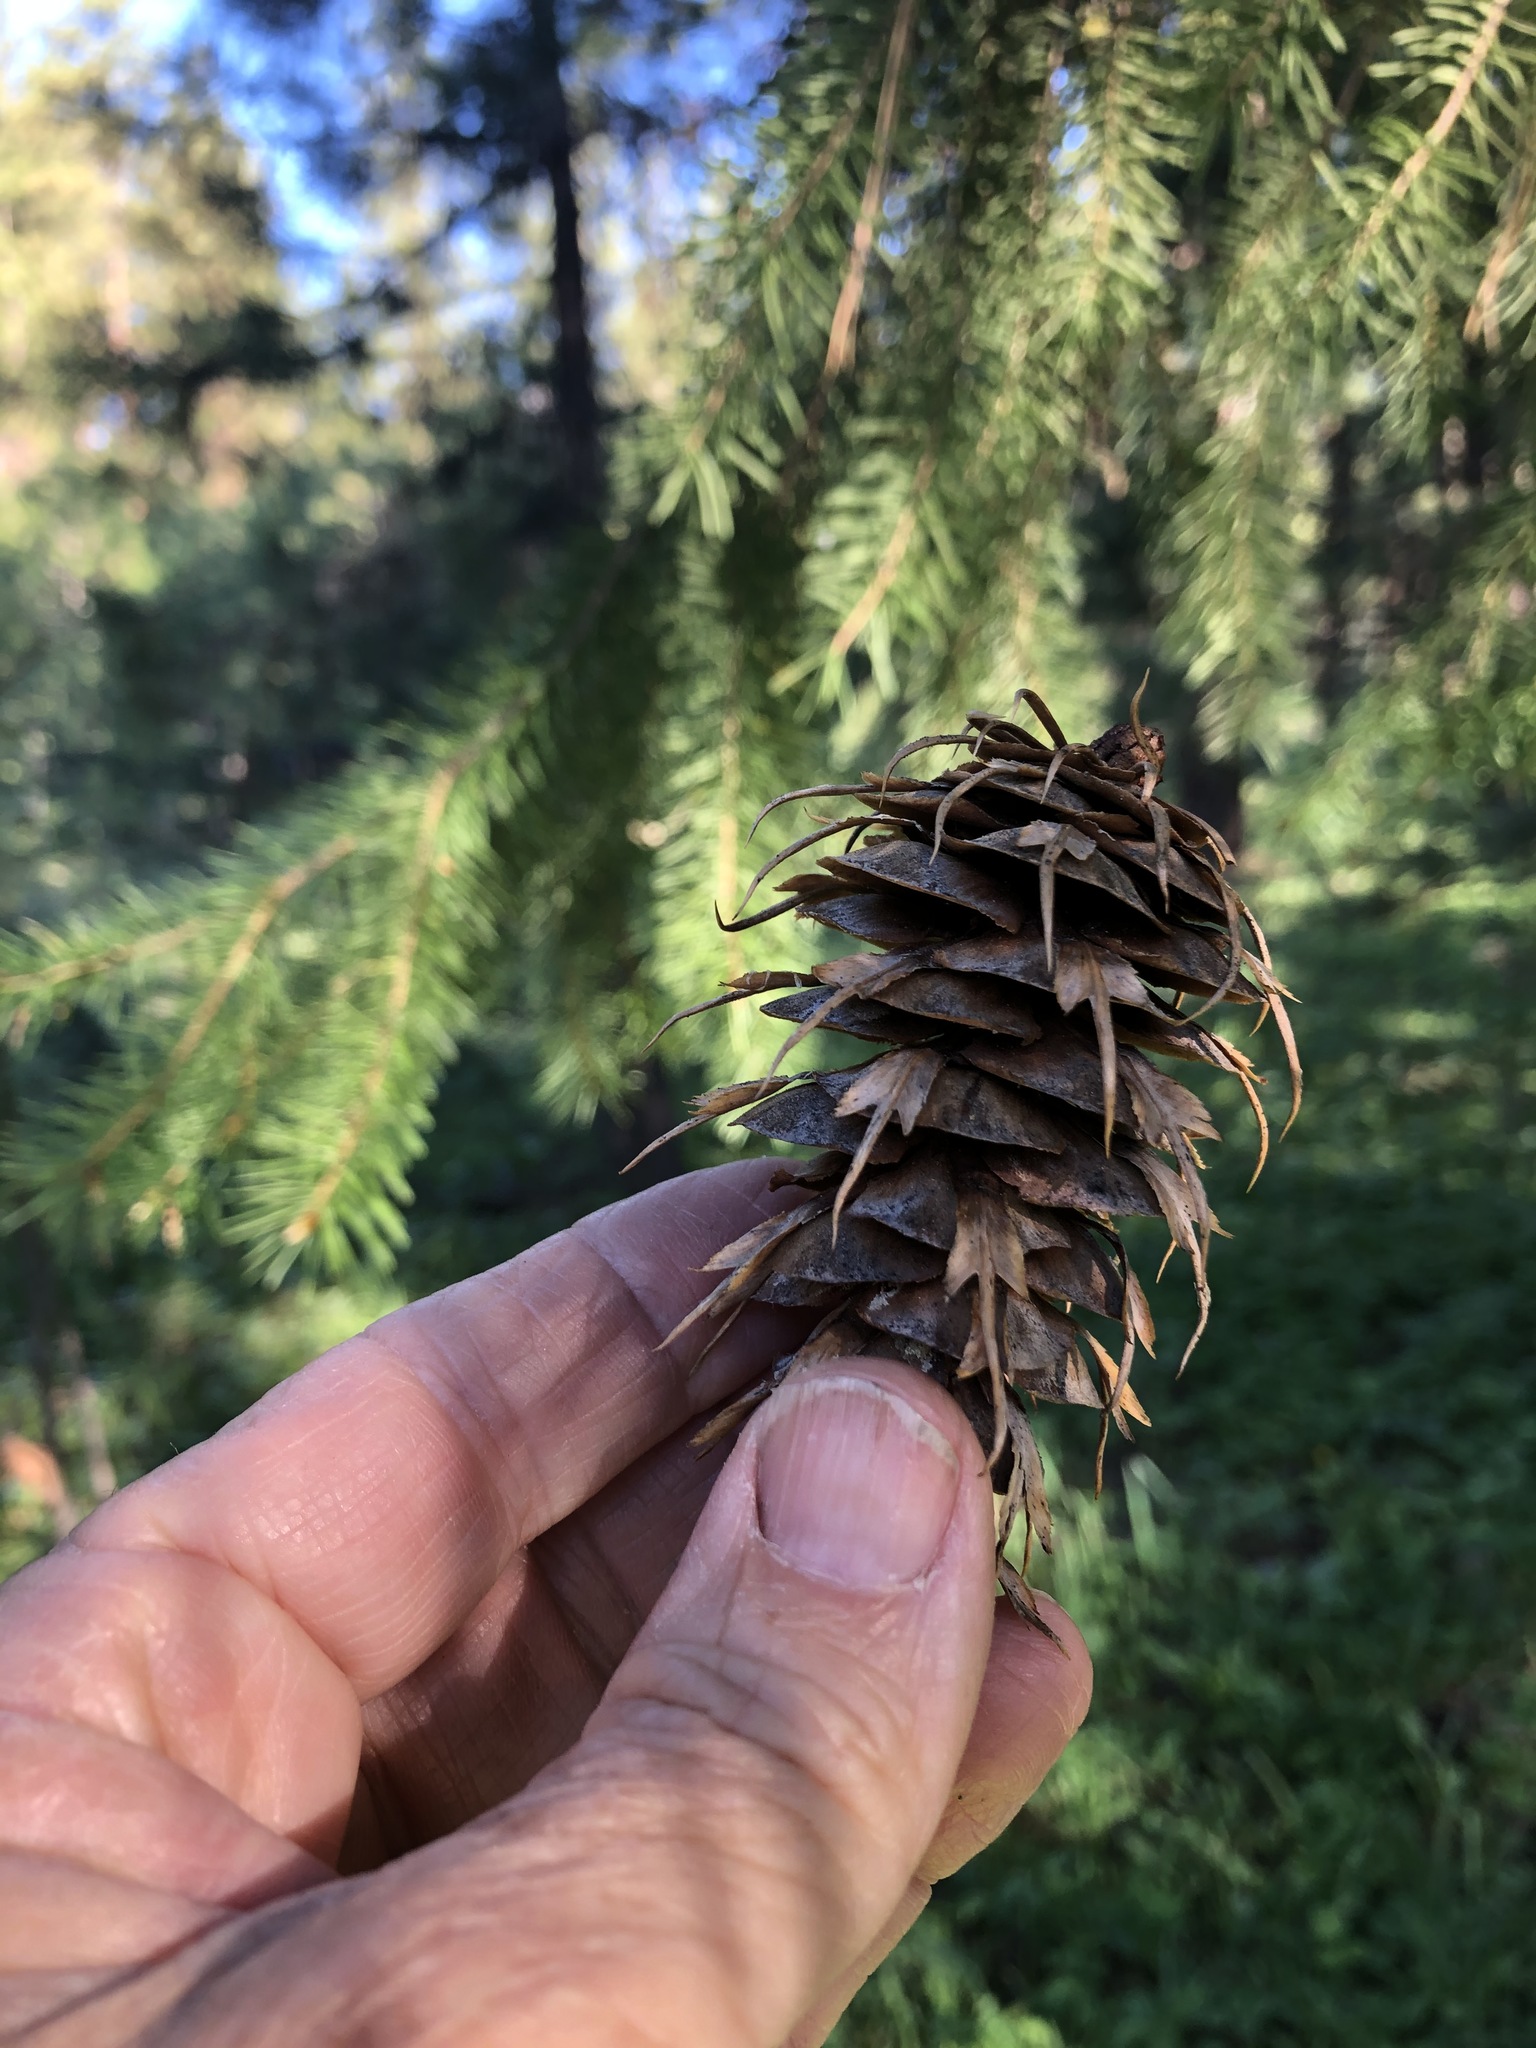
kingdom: Plantae
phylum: Tracheophyta
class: Pinopsida
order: Pinales
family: Pinaceae
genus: Pseudotsuga
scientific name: Pseudotsuga menziesii
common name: Douglas fir
